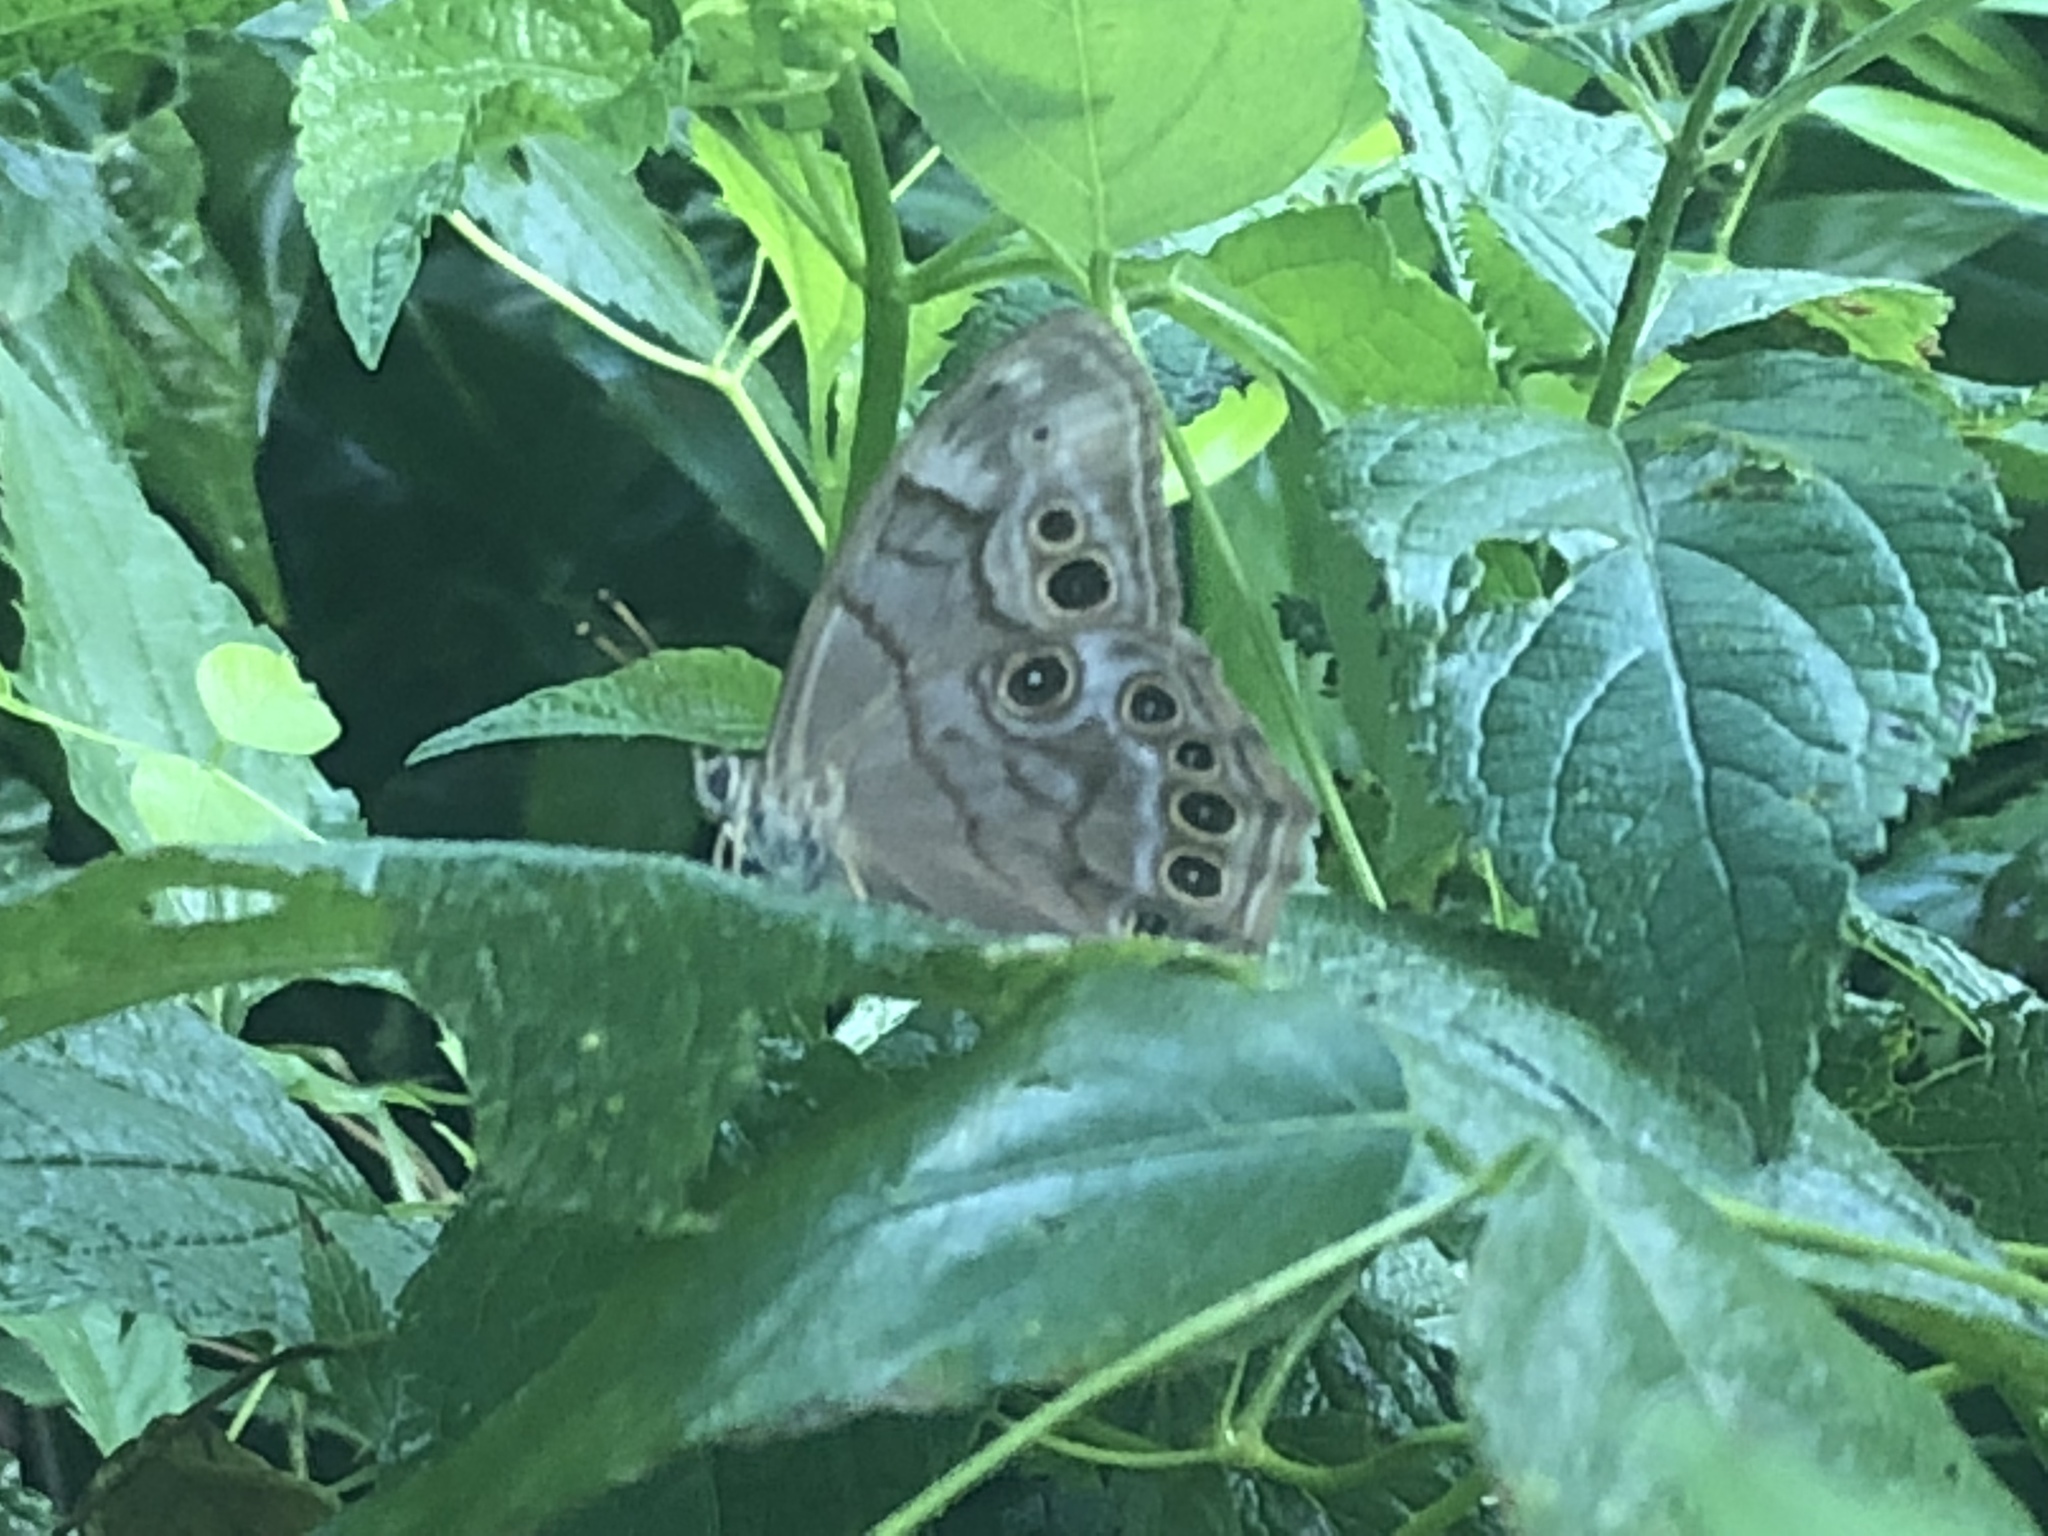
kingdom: Animalia
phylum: Arthropoda
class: Insecta
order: Lepidoptera
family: Nymphalidae
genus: Lethe
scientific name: Lethe anthedon
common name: Northern pearly-eye
